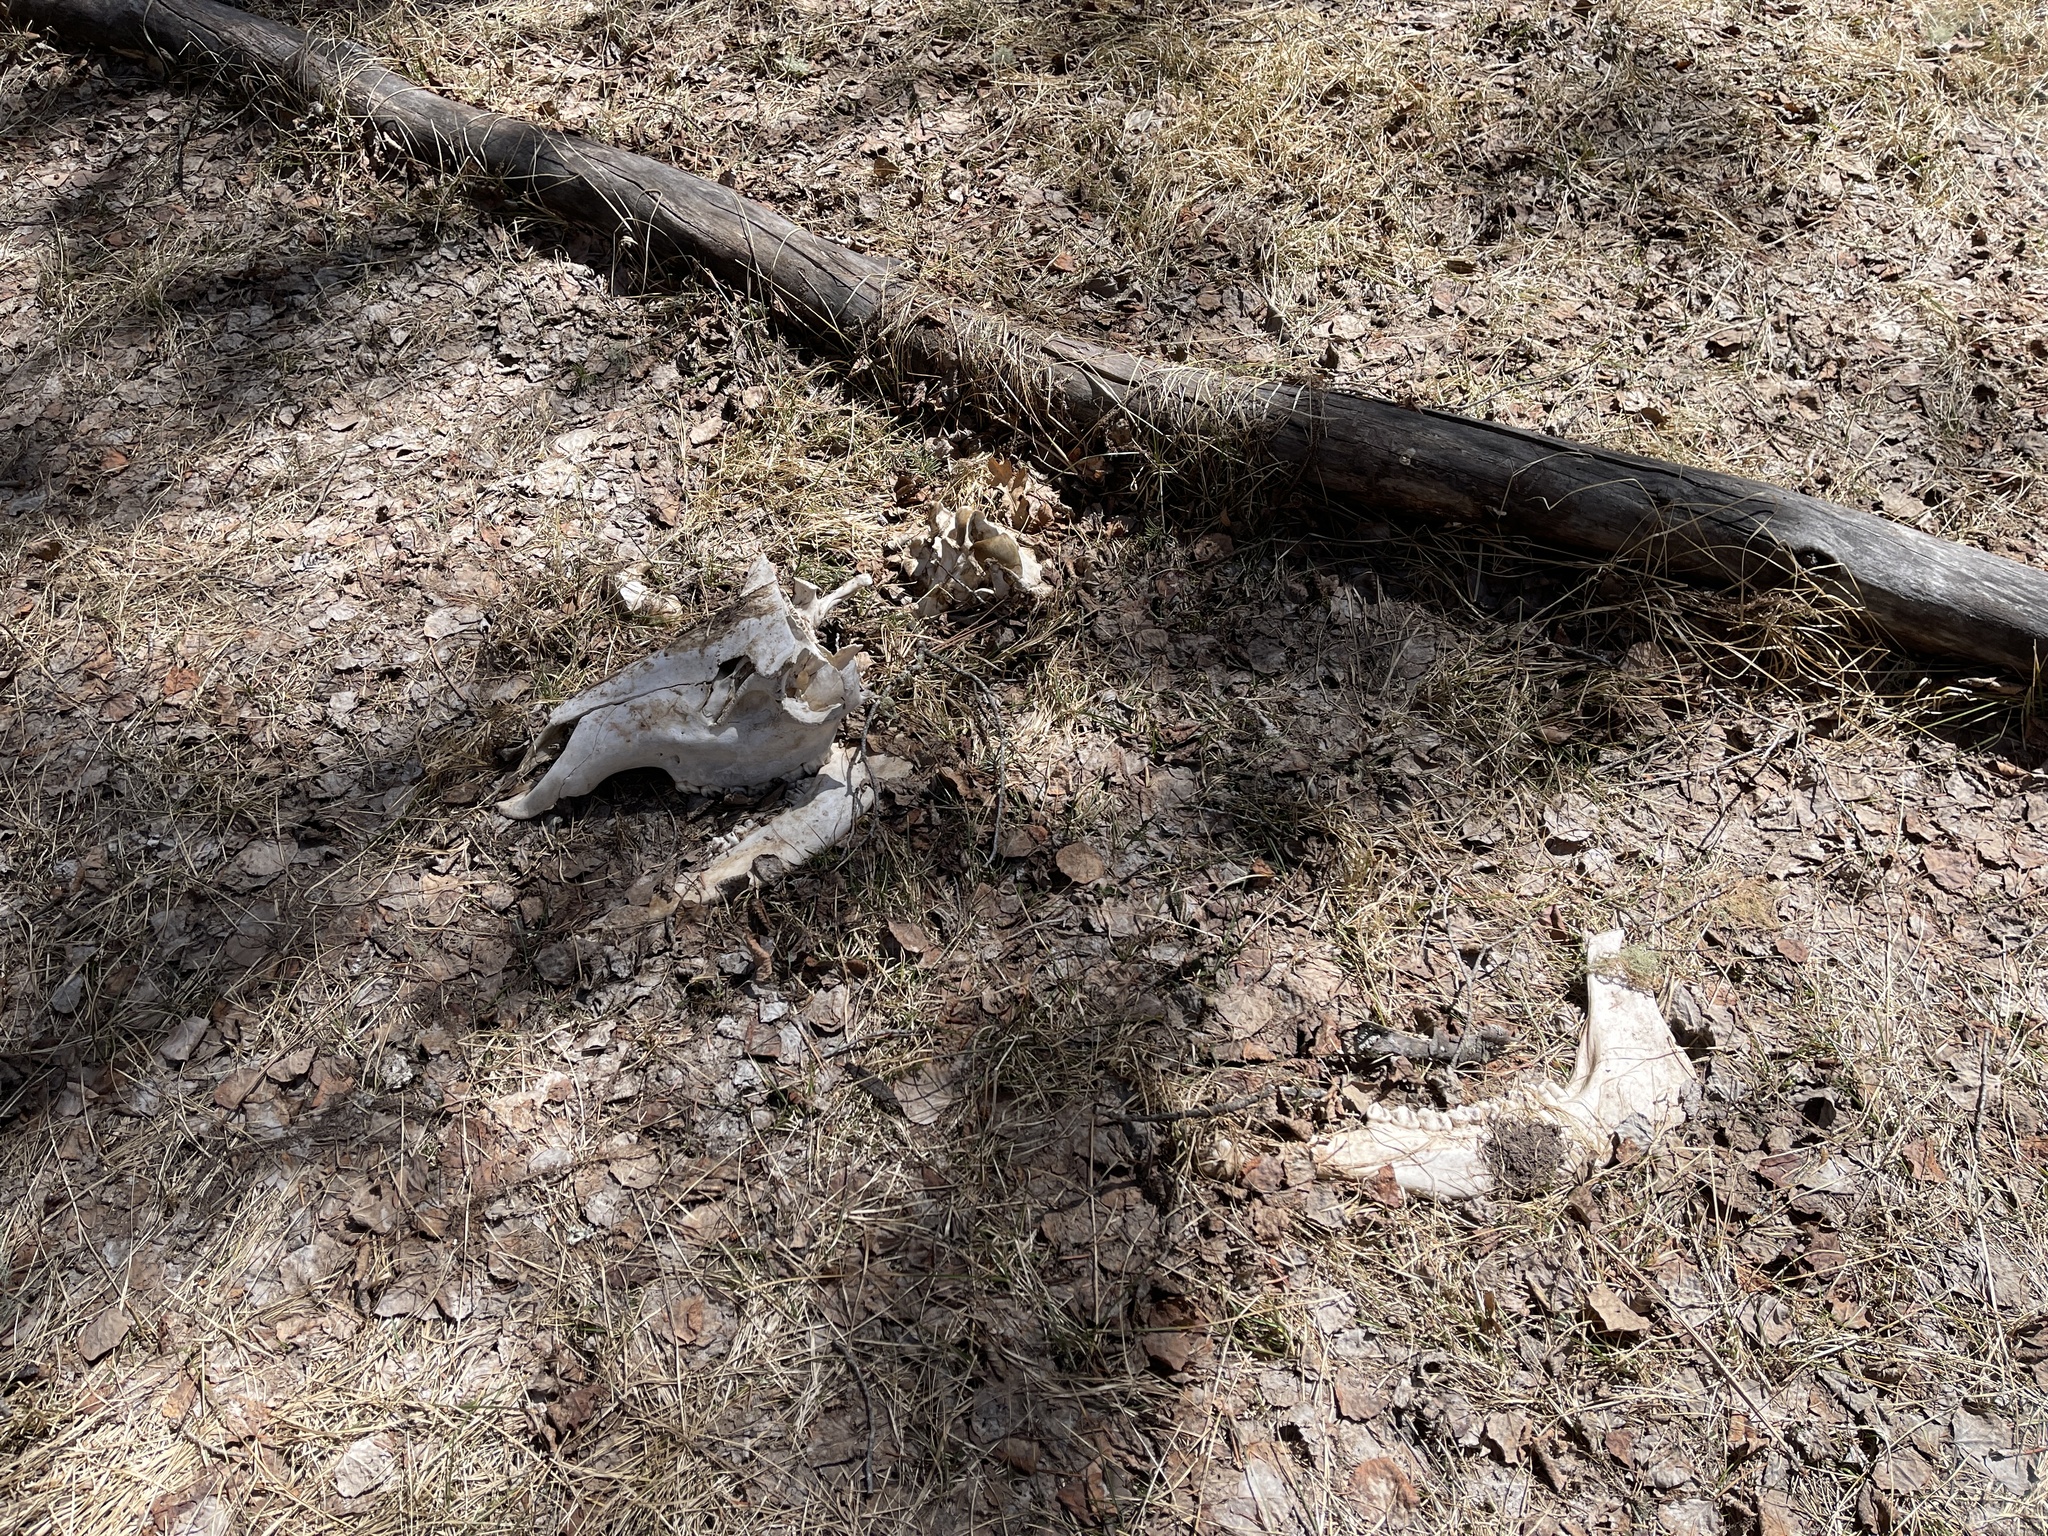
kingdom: Animalia
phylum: Chordata
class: Mammalia
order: Artiodactyla
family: Cervidae
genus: Cervus
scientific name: Cervus elaphus
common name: Red deer
